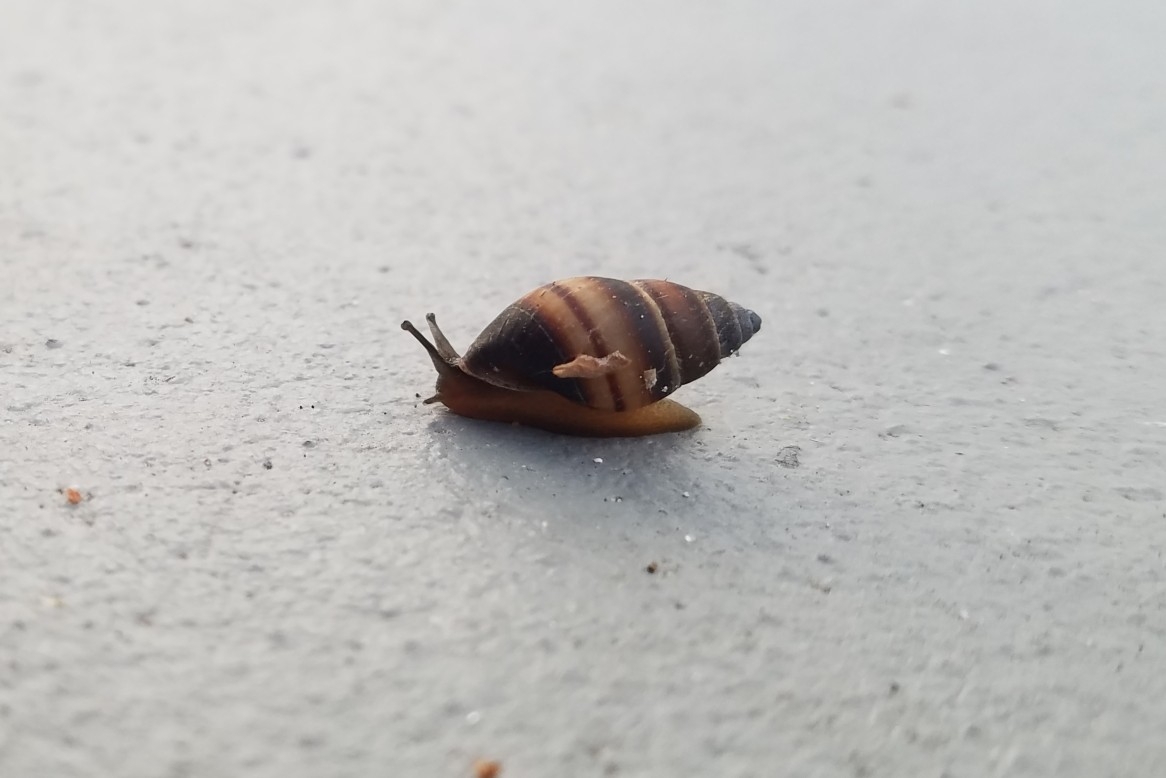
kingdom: Animalia
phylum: Mollusca
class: Gastropoda
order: Stylommatophora
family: Bulimulidae
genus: Bulimulus
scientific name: Bulimulus guadalupensis
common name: West indian bulimulus
